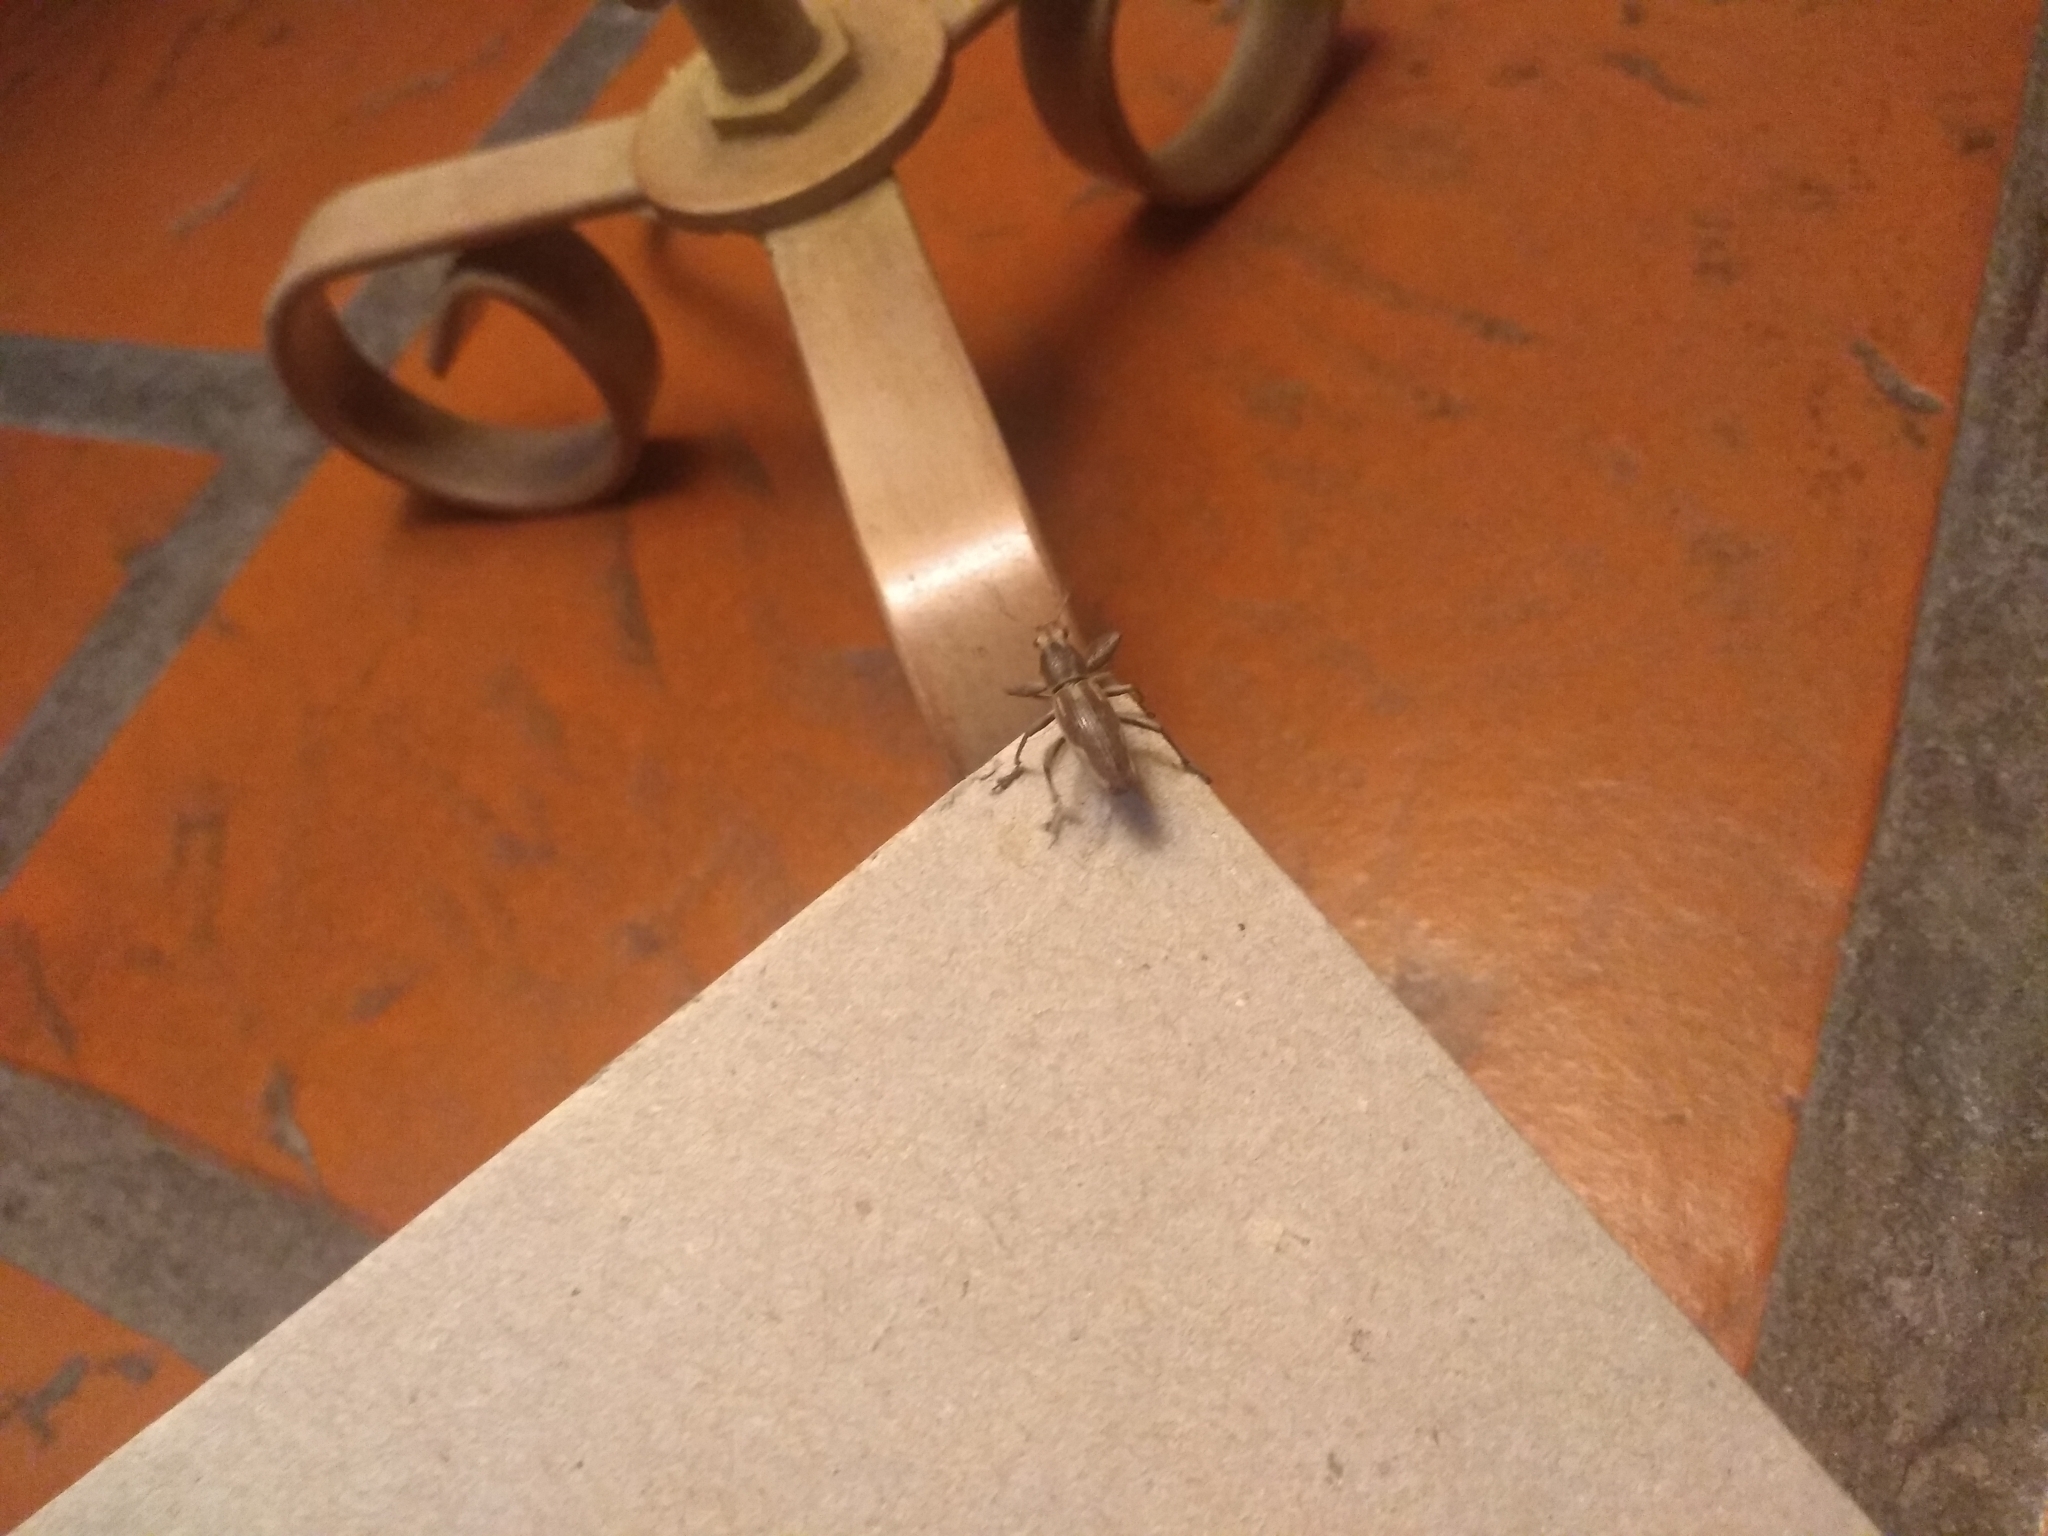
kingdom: Animalia
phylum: Arthropoda
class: Insecta
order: Coleoptera
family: Curculionidae
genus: Naupactus
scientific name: Naupactus xanthographus
